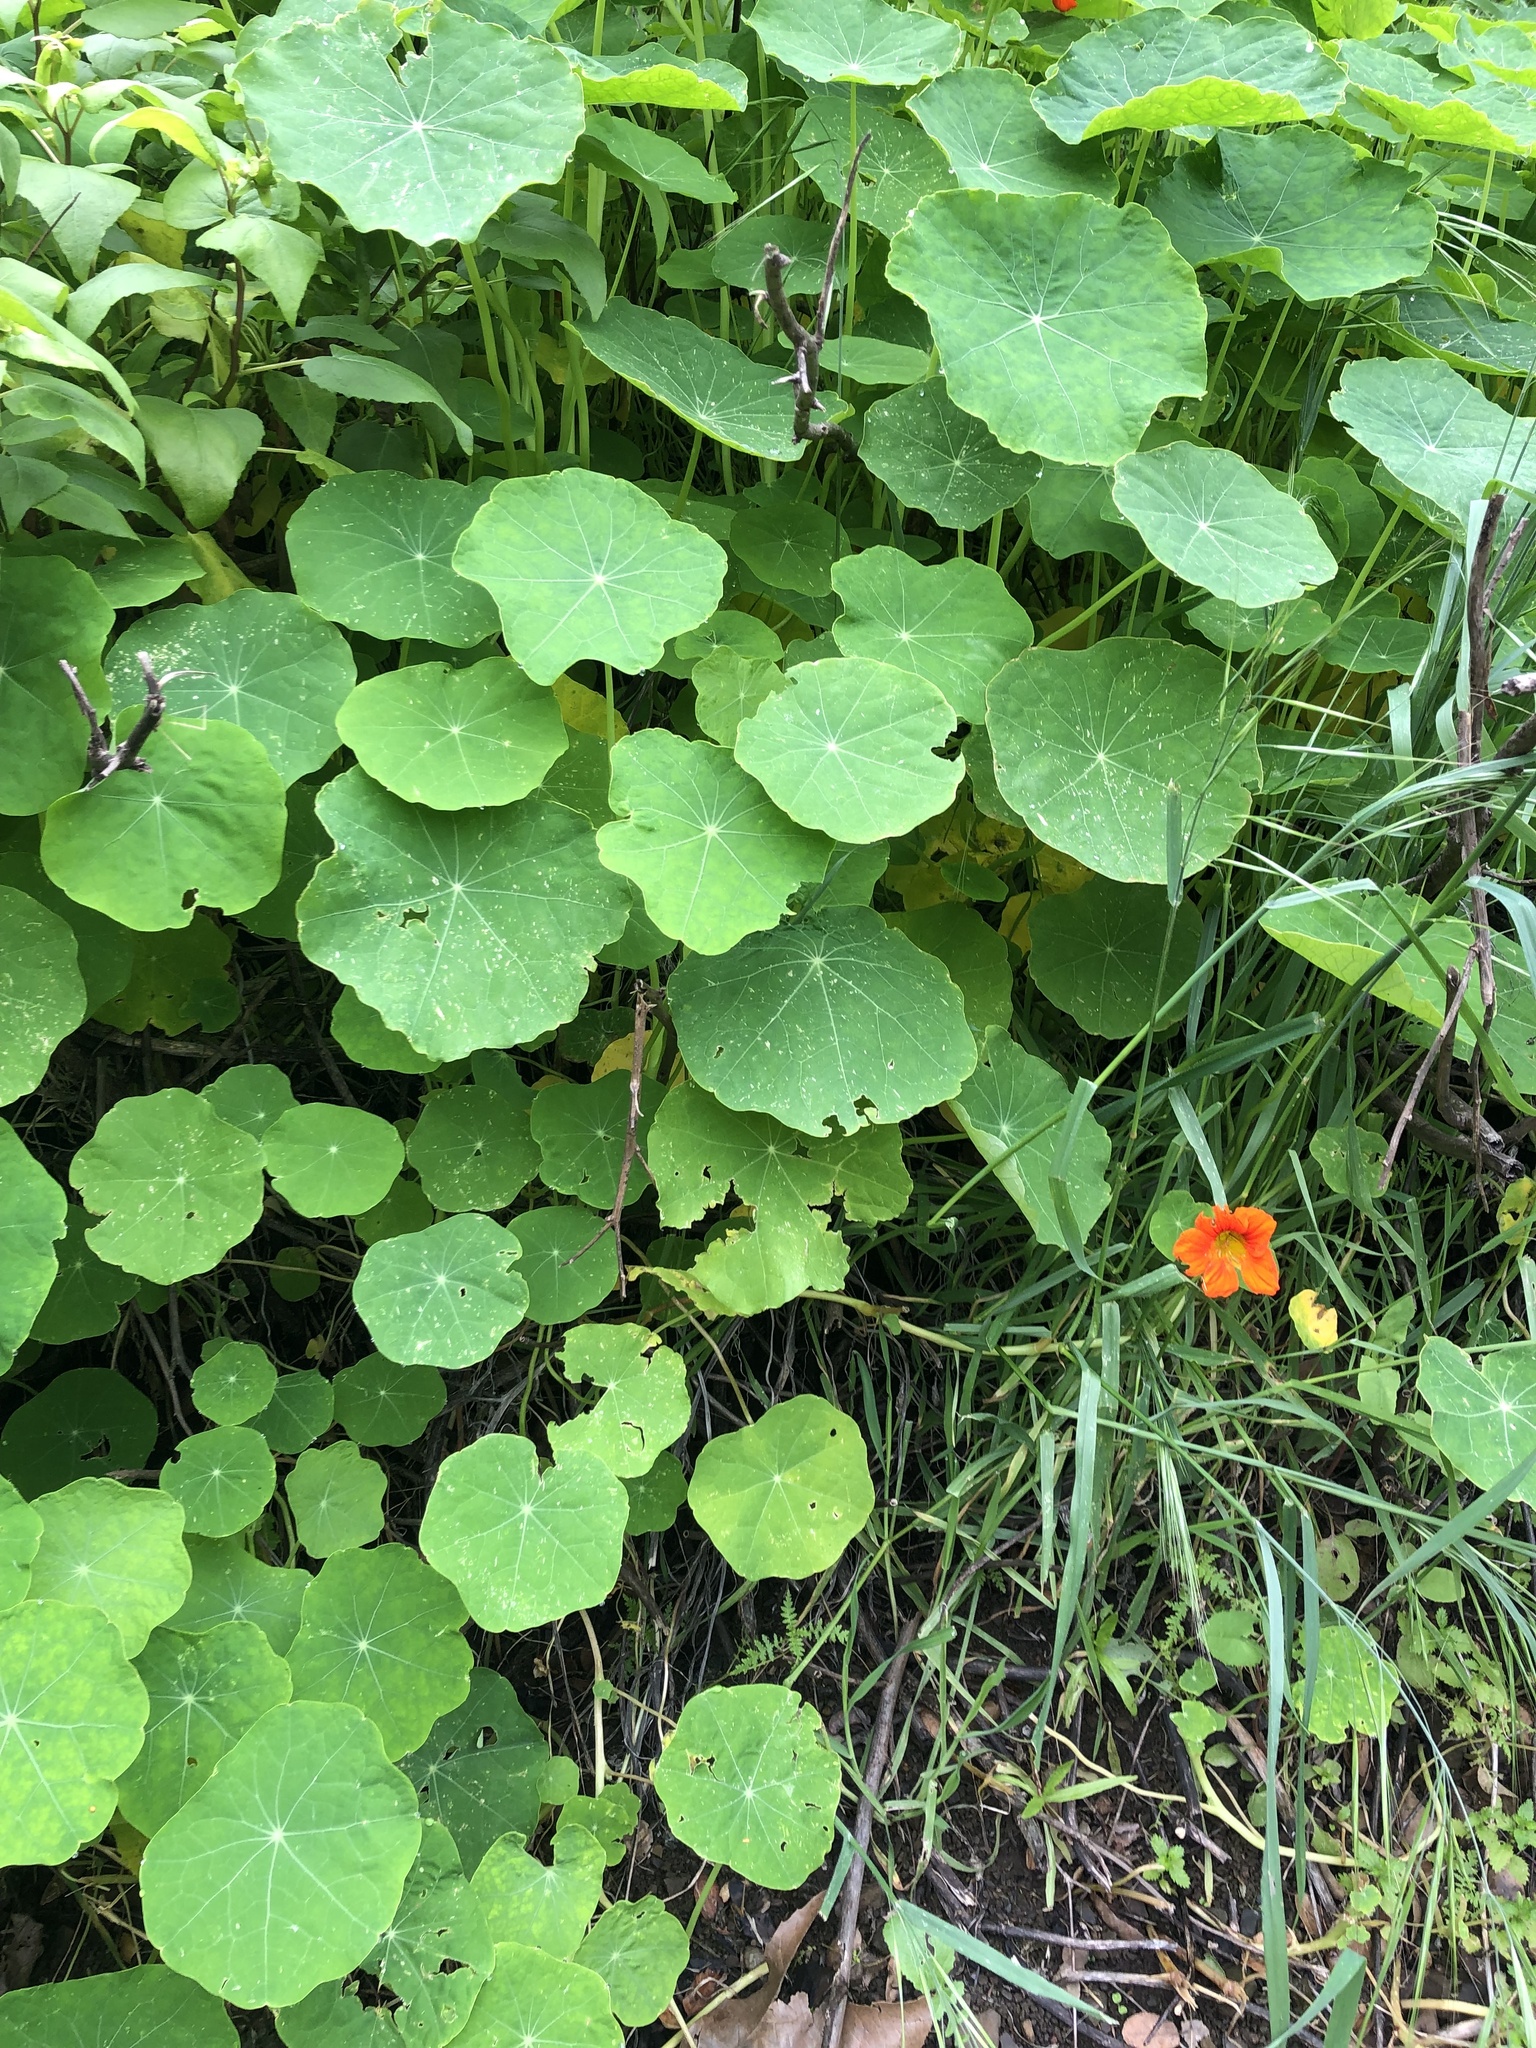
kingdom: Plantae
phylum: Tracheophyta
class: Magnoliopsida
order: Brassicales
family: Tropaeolaceae
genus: Tropaeolum
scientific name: Tropaeolum majus
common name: Nasturtium
